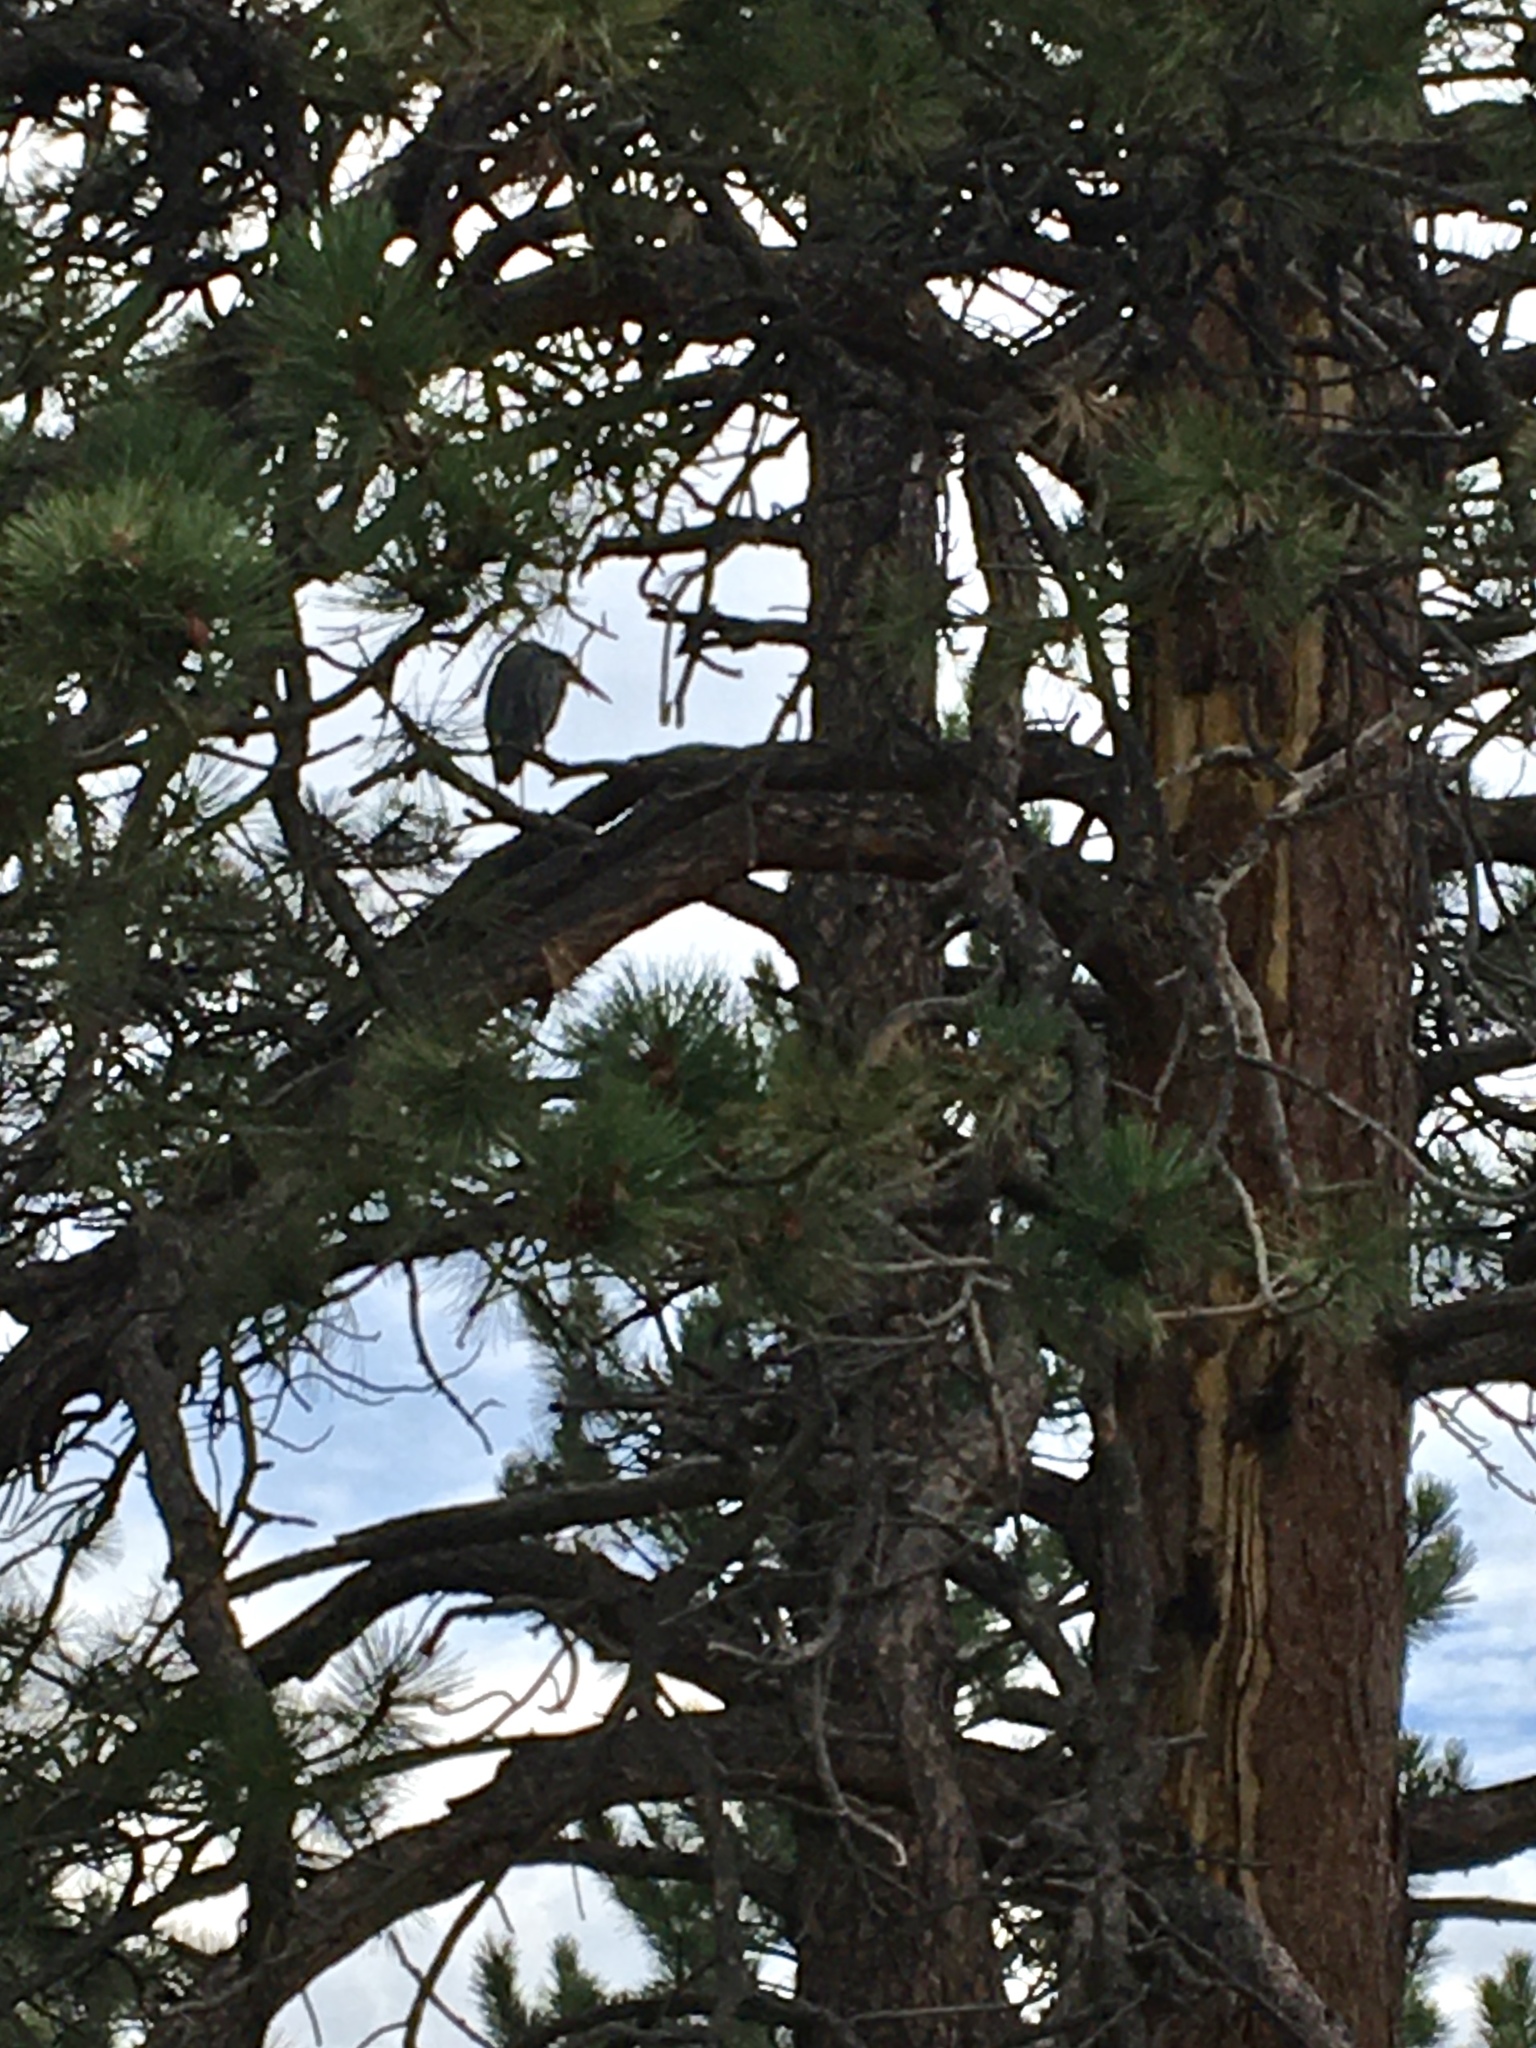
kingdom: Animalia
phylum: Chordata
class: Aves
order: Pelecaniformes
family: Ardeidae
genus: Ardea
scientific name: Ardea herodias
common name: Great blue heron
